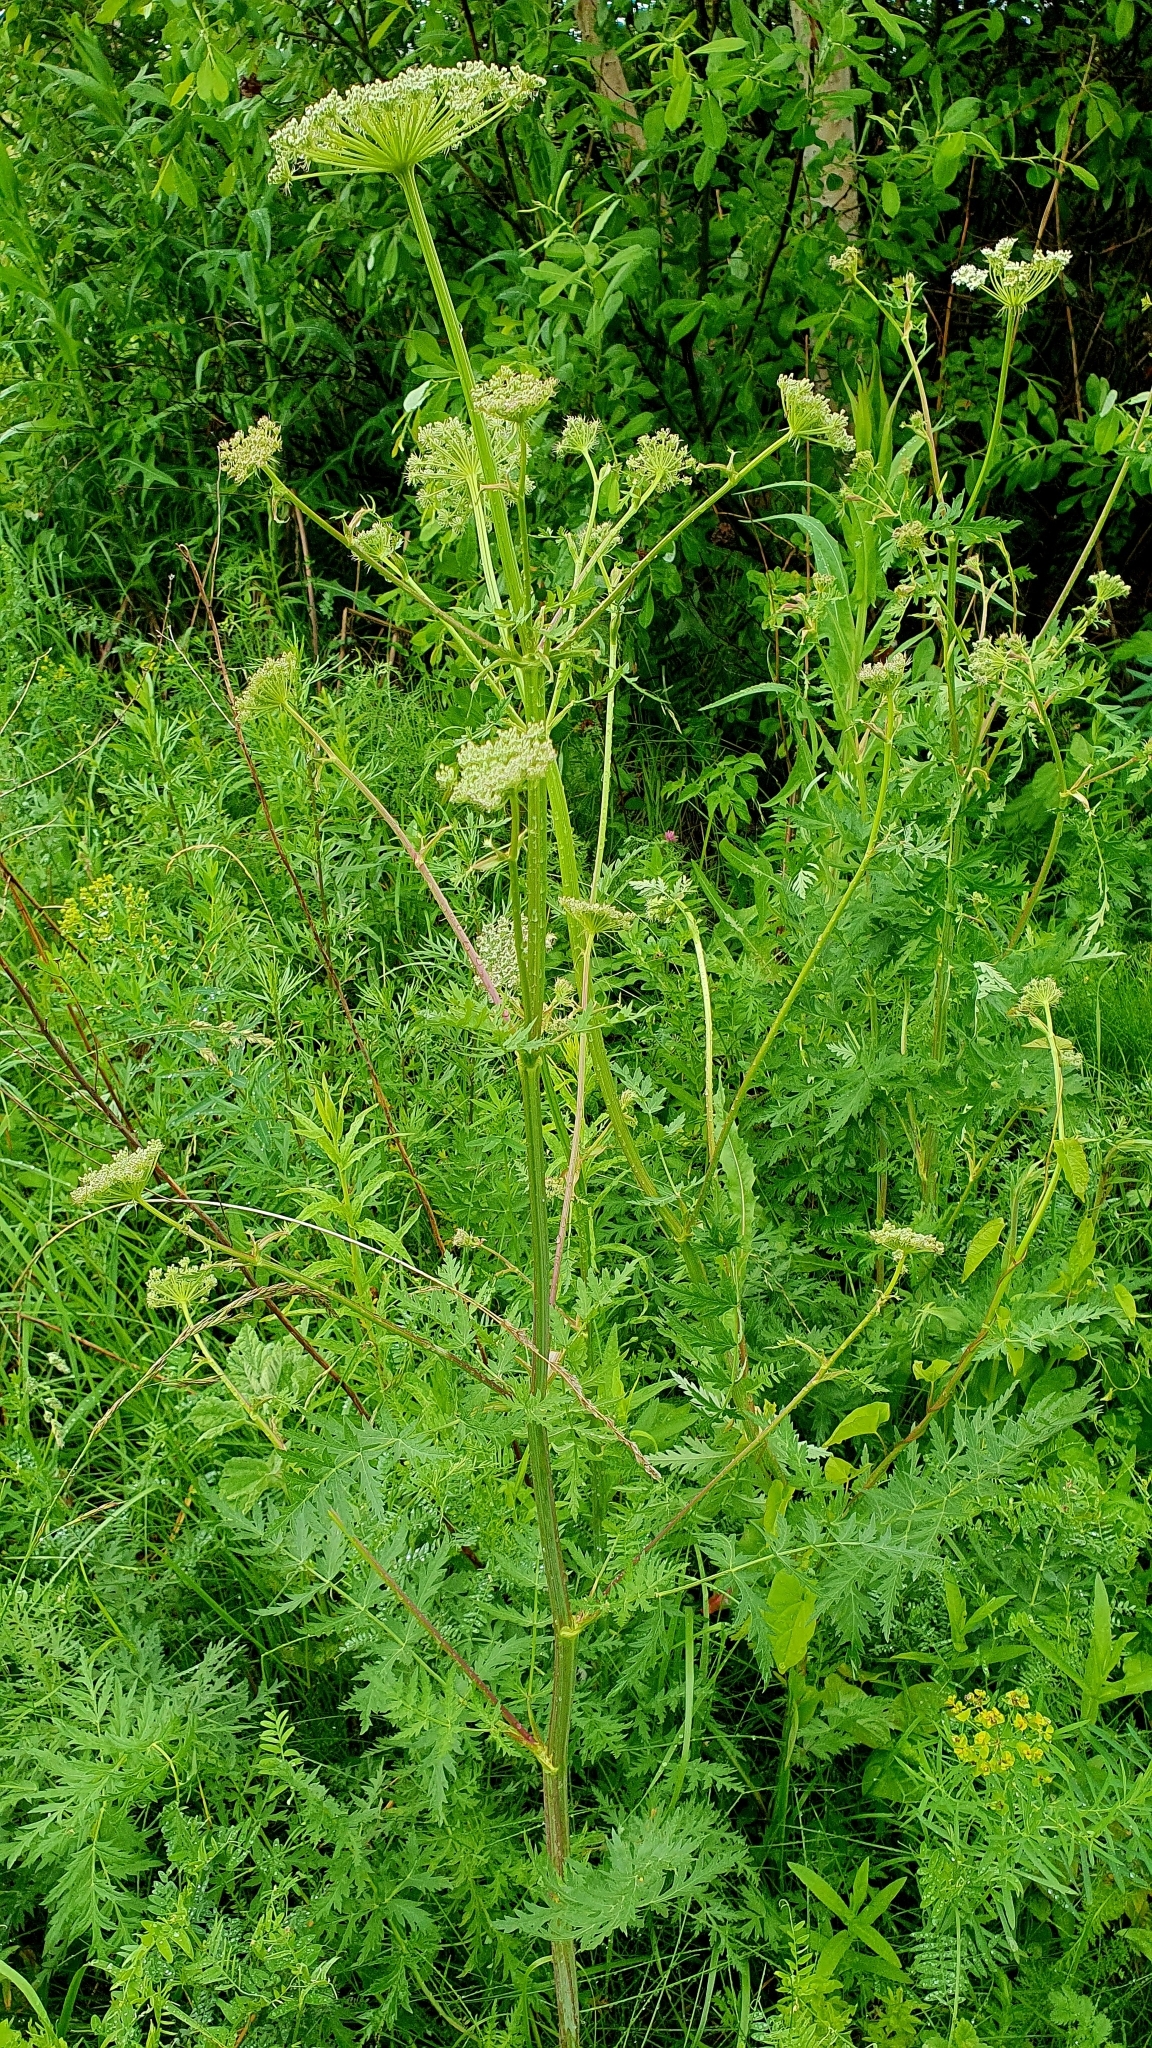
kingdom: Plantae
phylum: Tracheophyta
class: Magnoliopsida
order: Apiales
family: Apiaceae
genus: Seseli
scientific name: Seseli libanotis
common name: Mooncarrot
